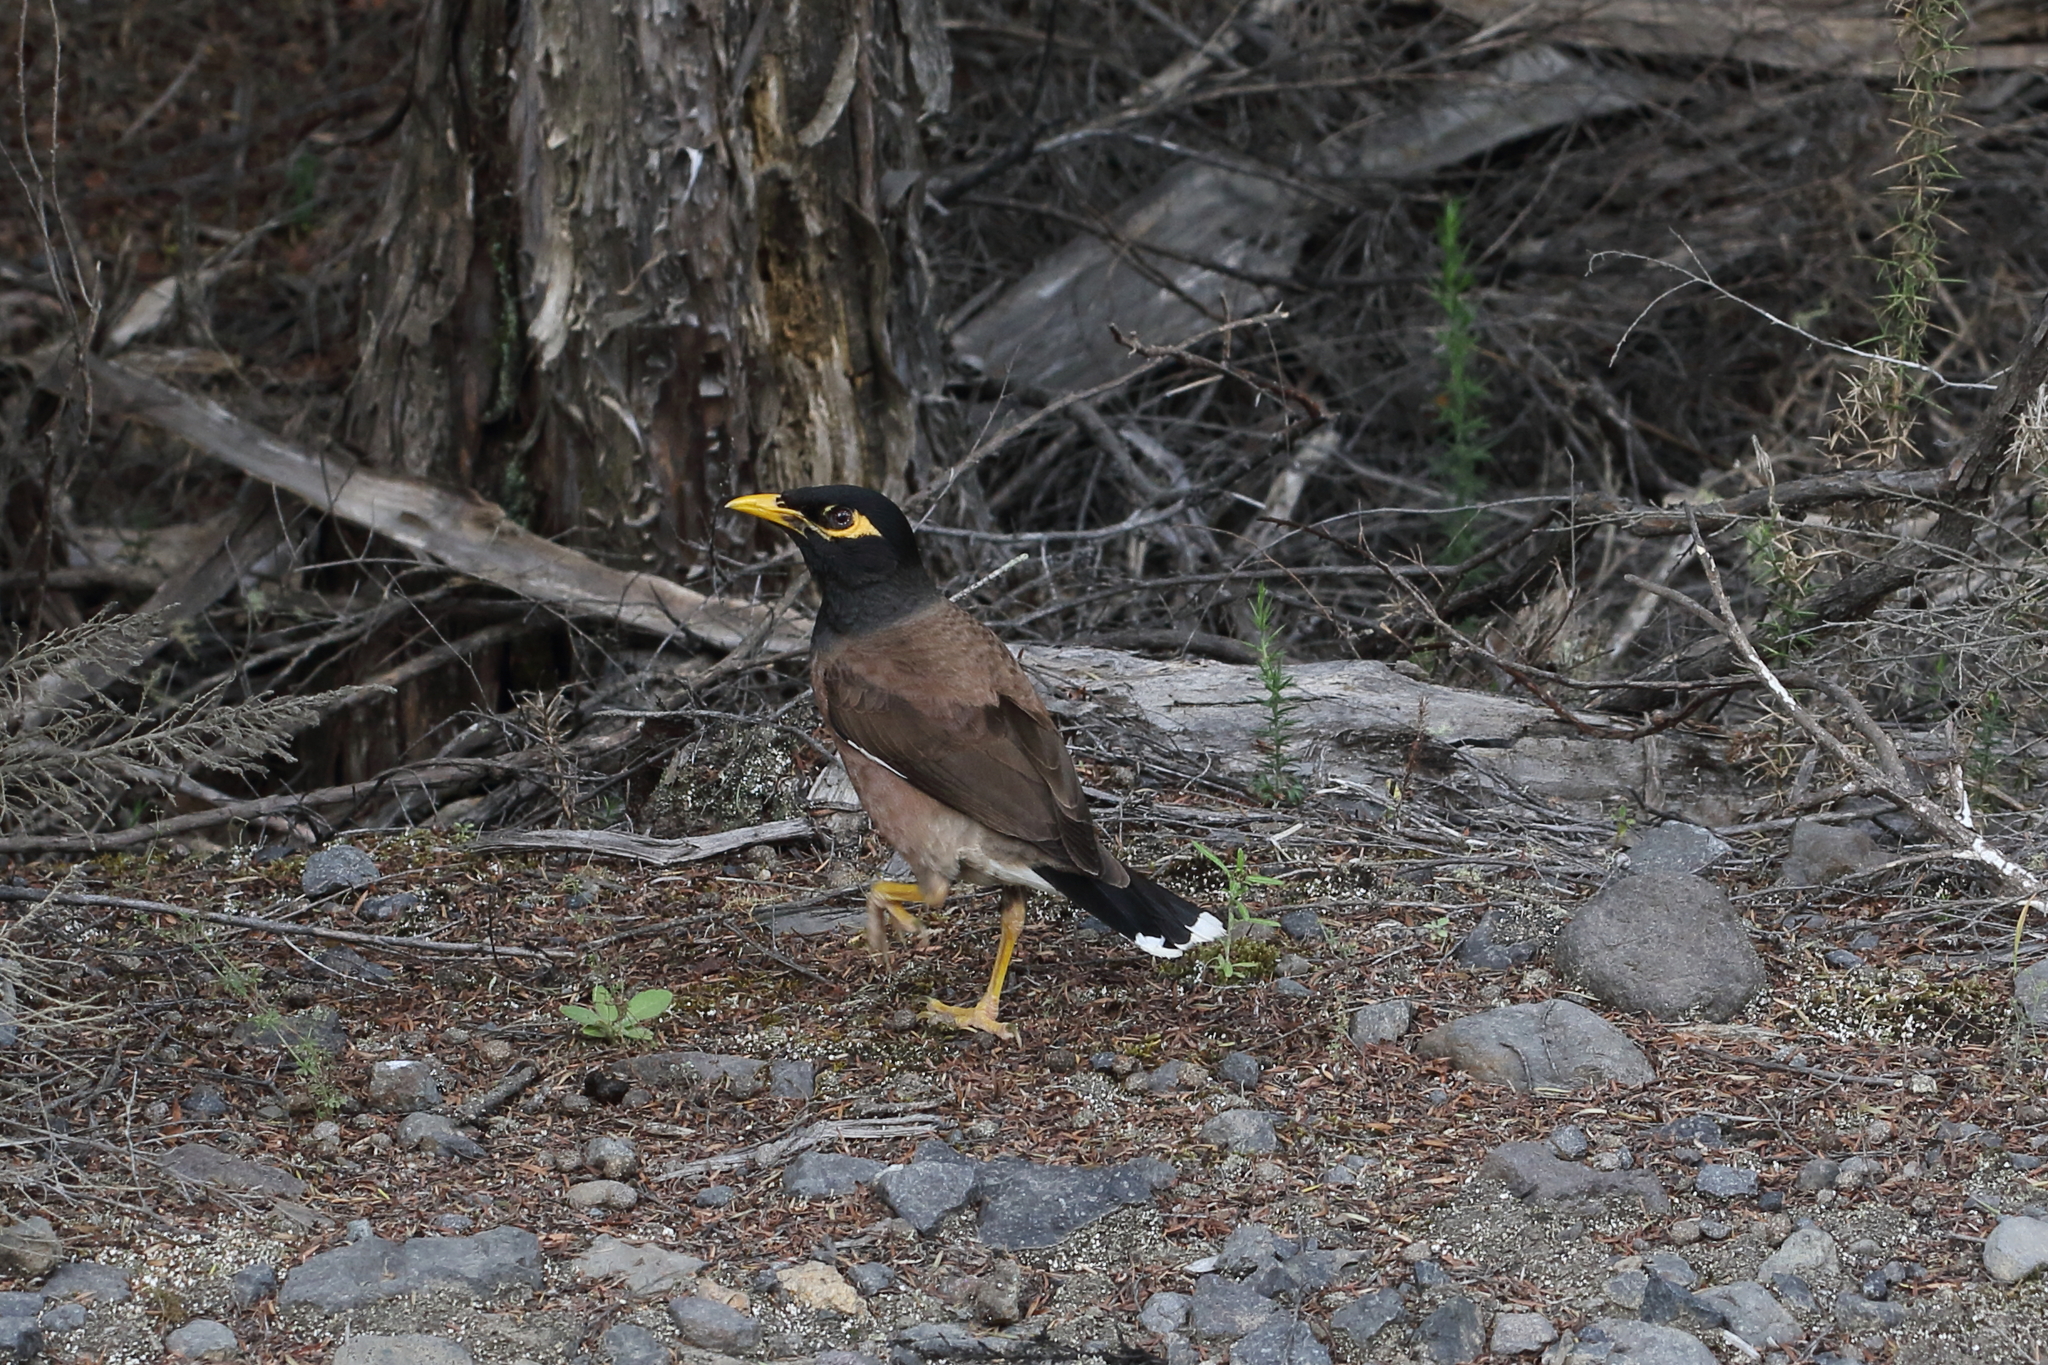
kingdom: Animalia
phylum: Chordata
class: Aves
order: Passeriformes
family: Sturnidae
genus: Acridotheres
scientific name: Acridotheres tristis
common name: Common myna
